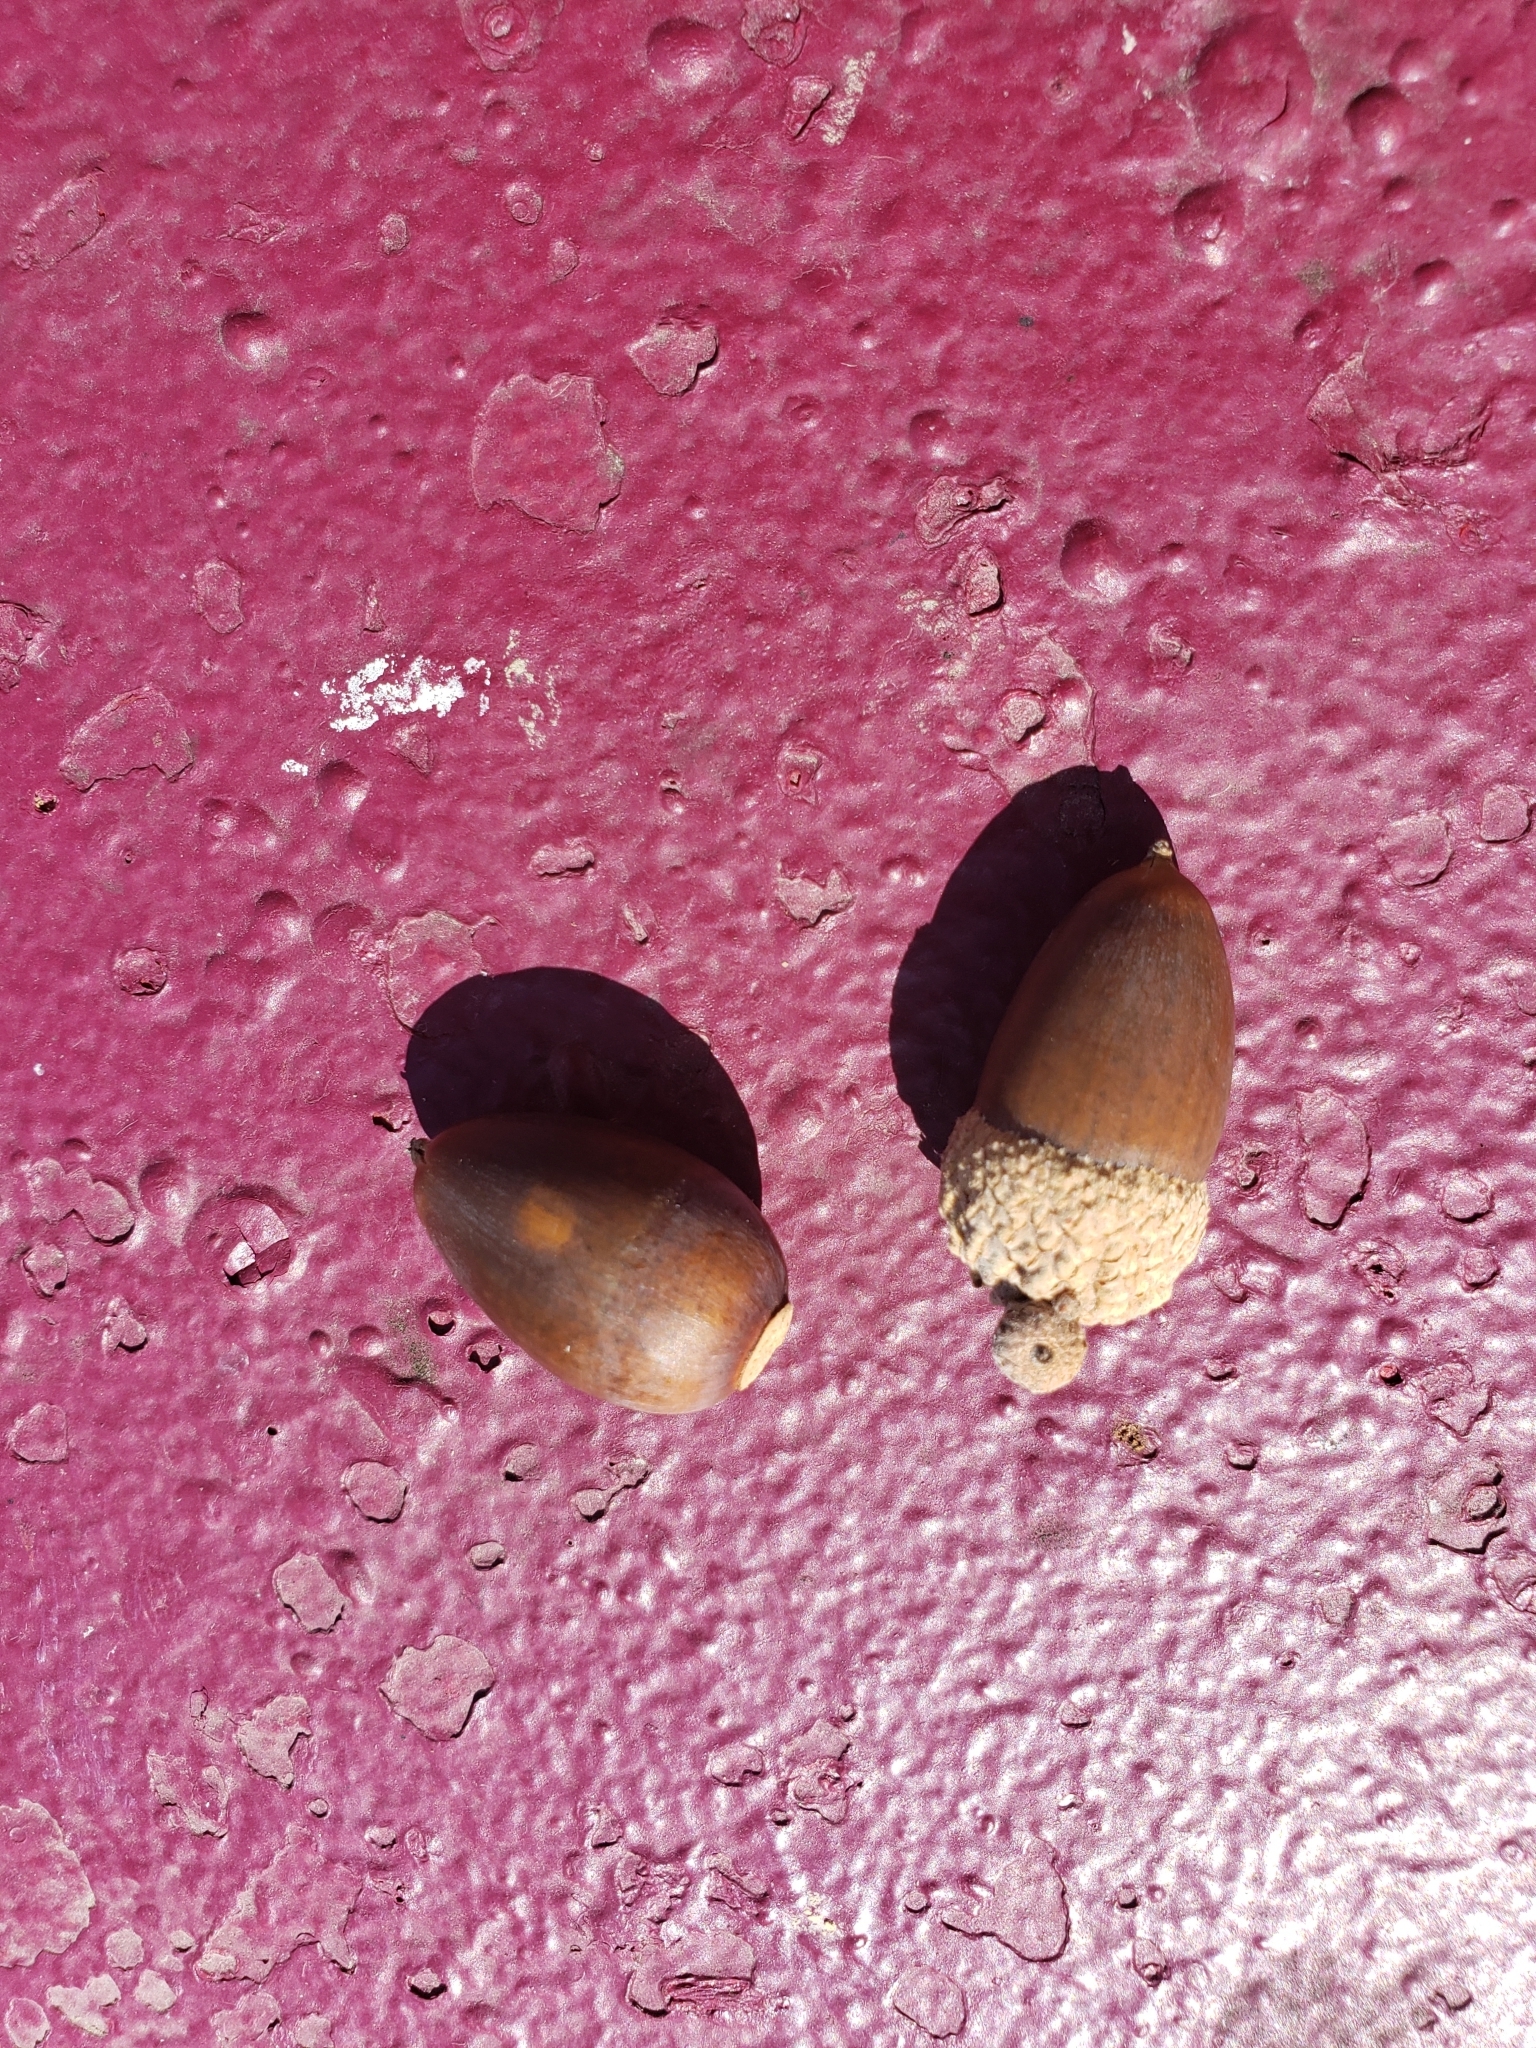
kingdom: Plantae
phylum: Tracheophyta
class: Magnoliopsida
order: Fagales
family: Fagaceae
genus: Quercus
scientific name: Quercus alba
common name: White oak
